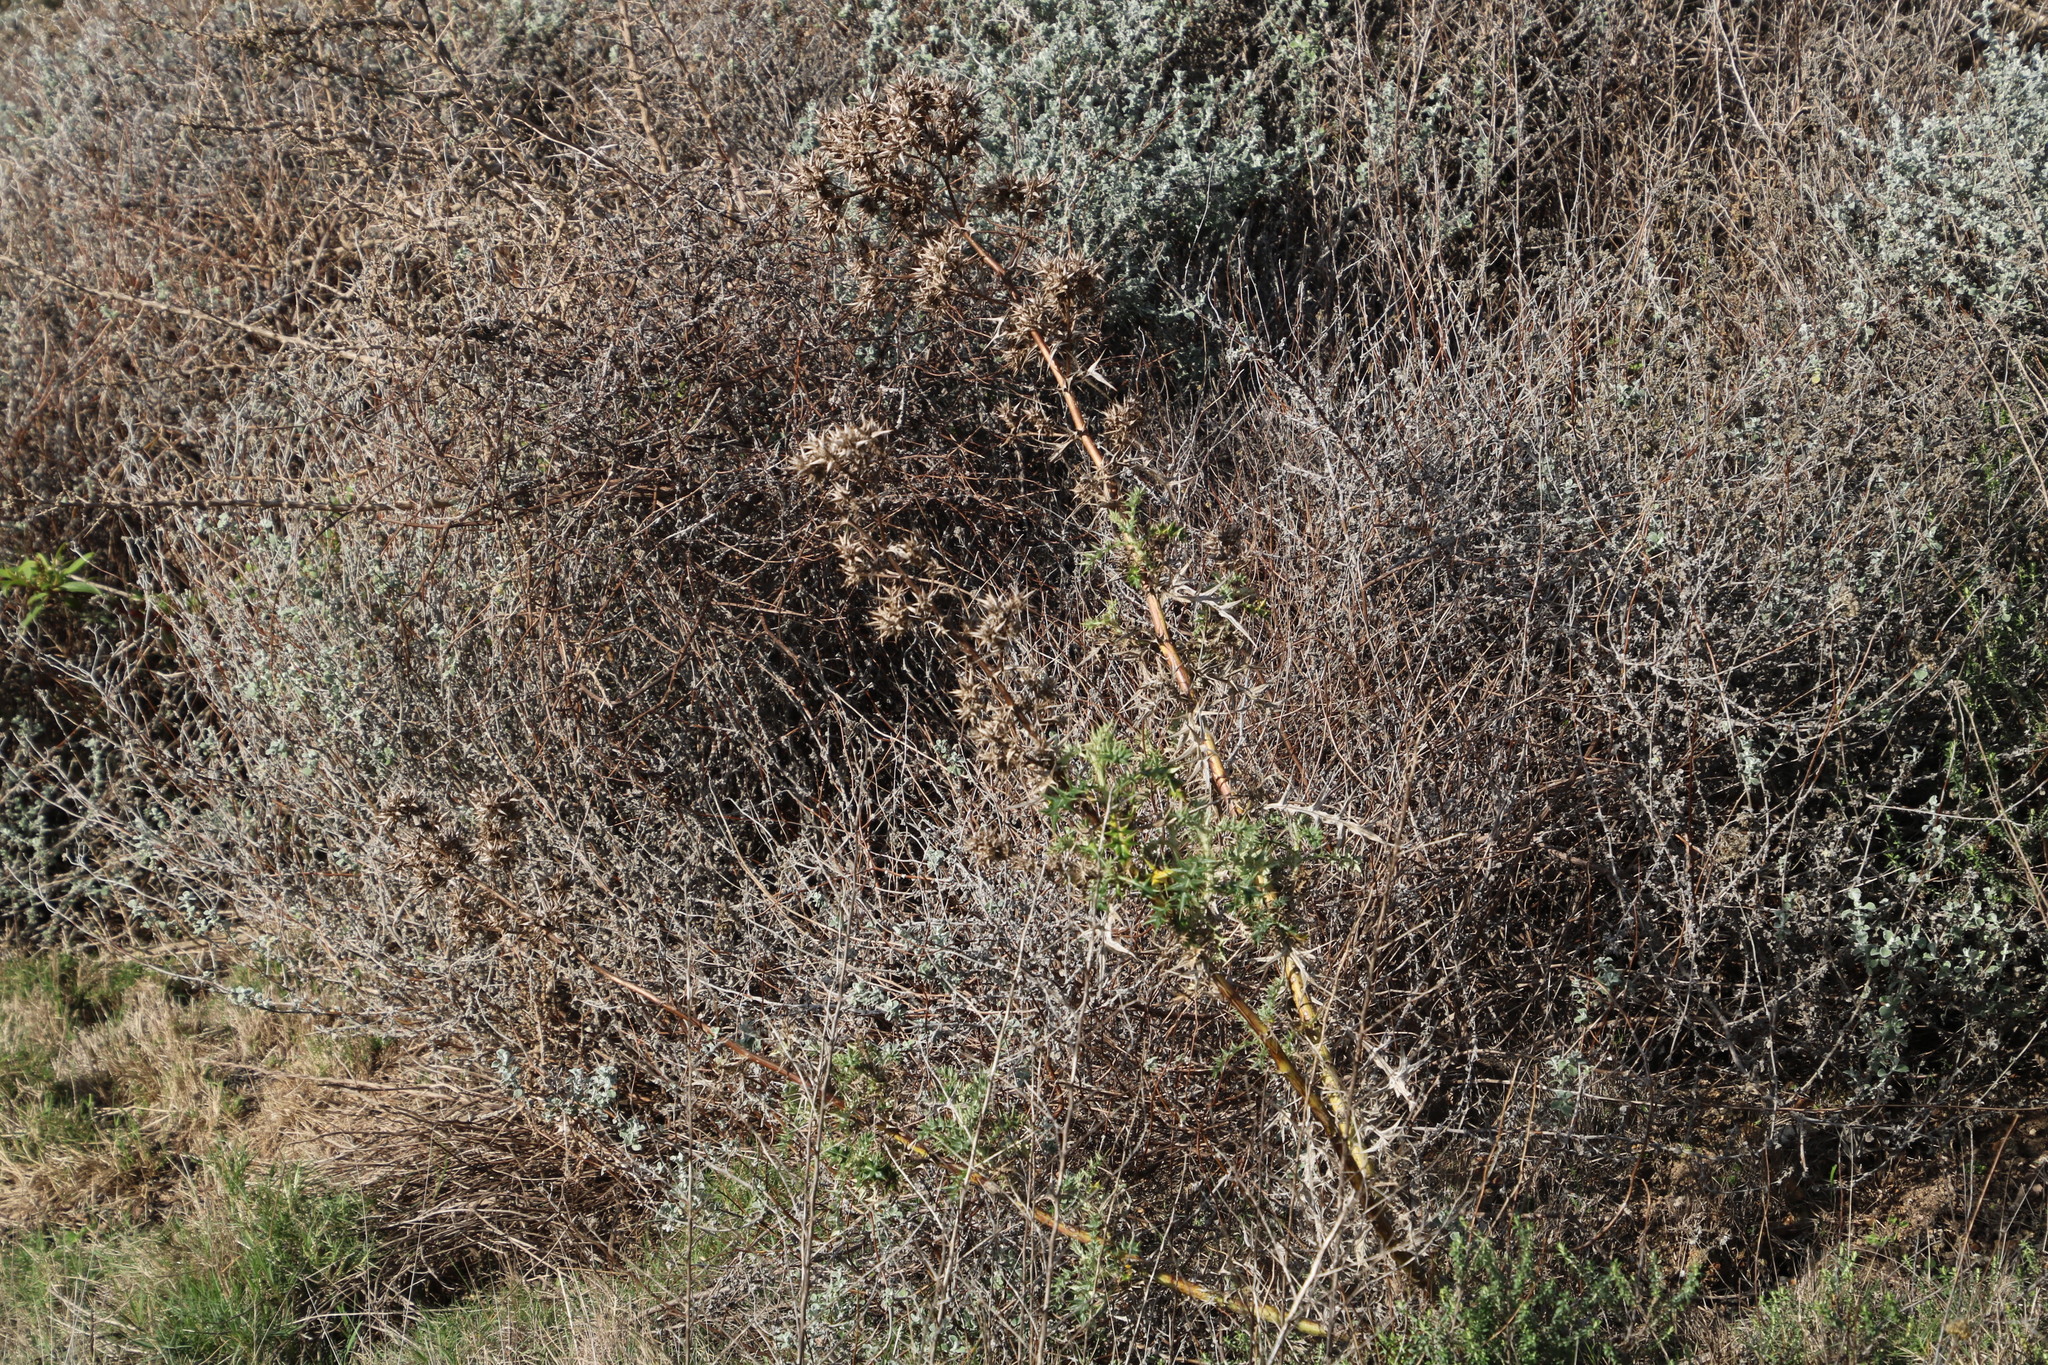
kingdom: Plantae
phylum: Tracheophyta
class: Magnoliopsida
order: Asterales
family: Asteraceae
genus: Berkheya
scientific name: Berkheya rigida
